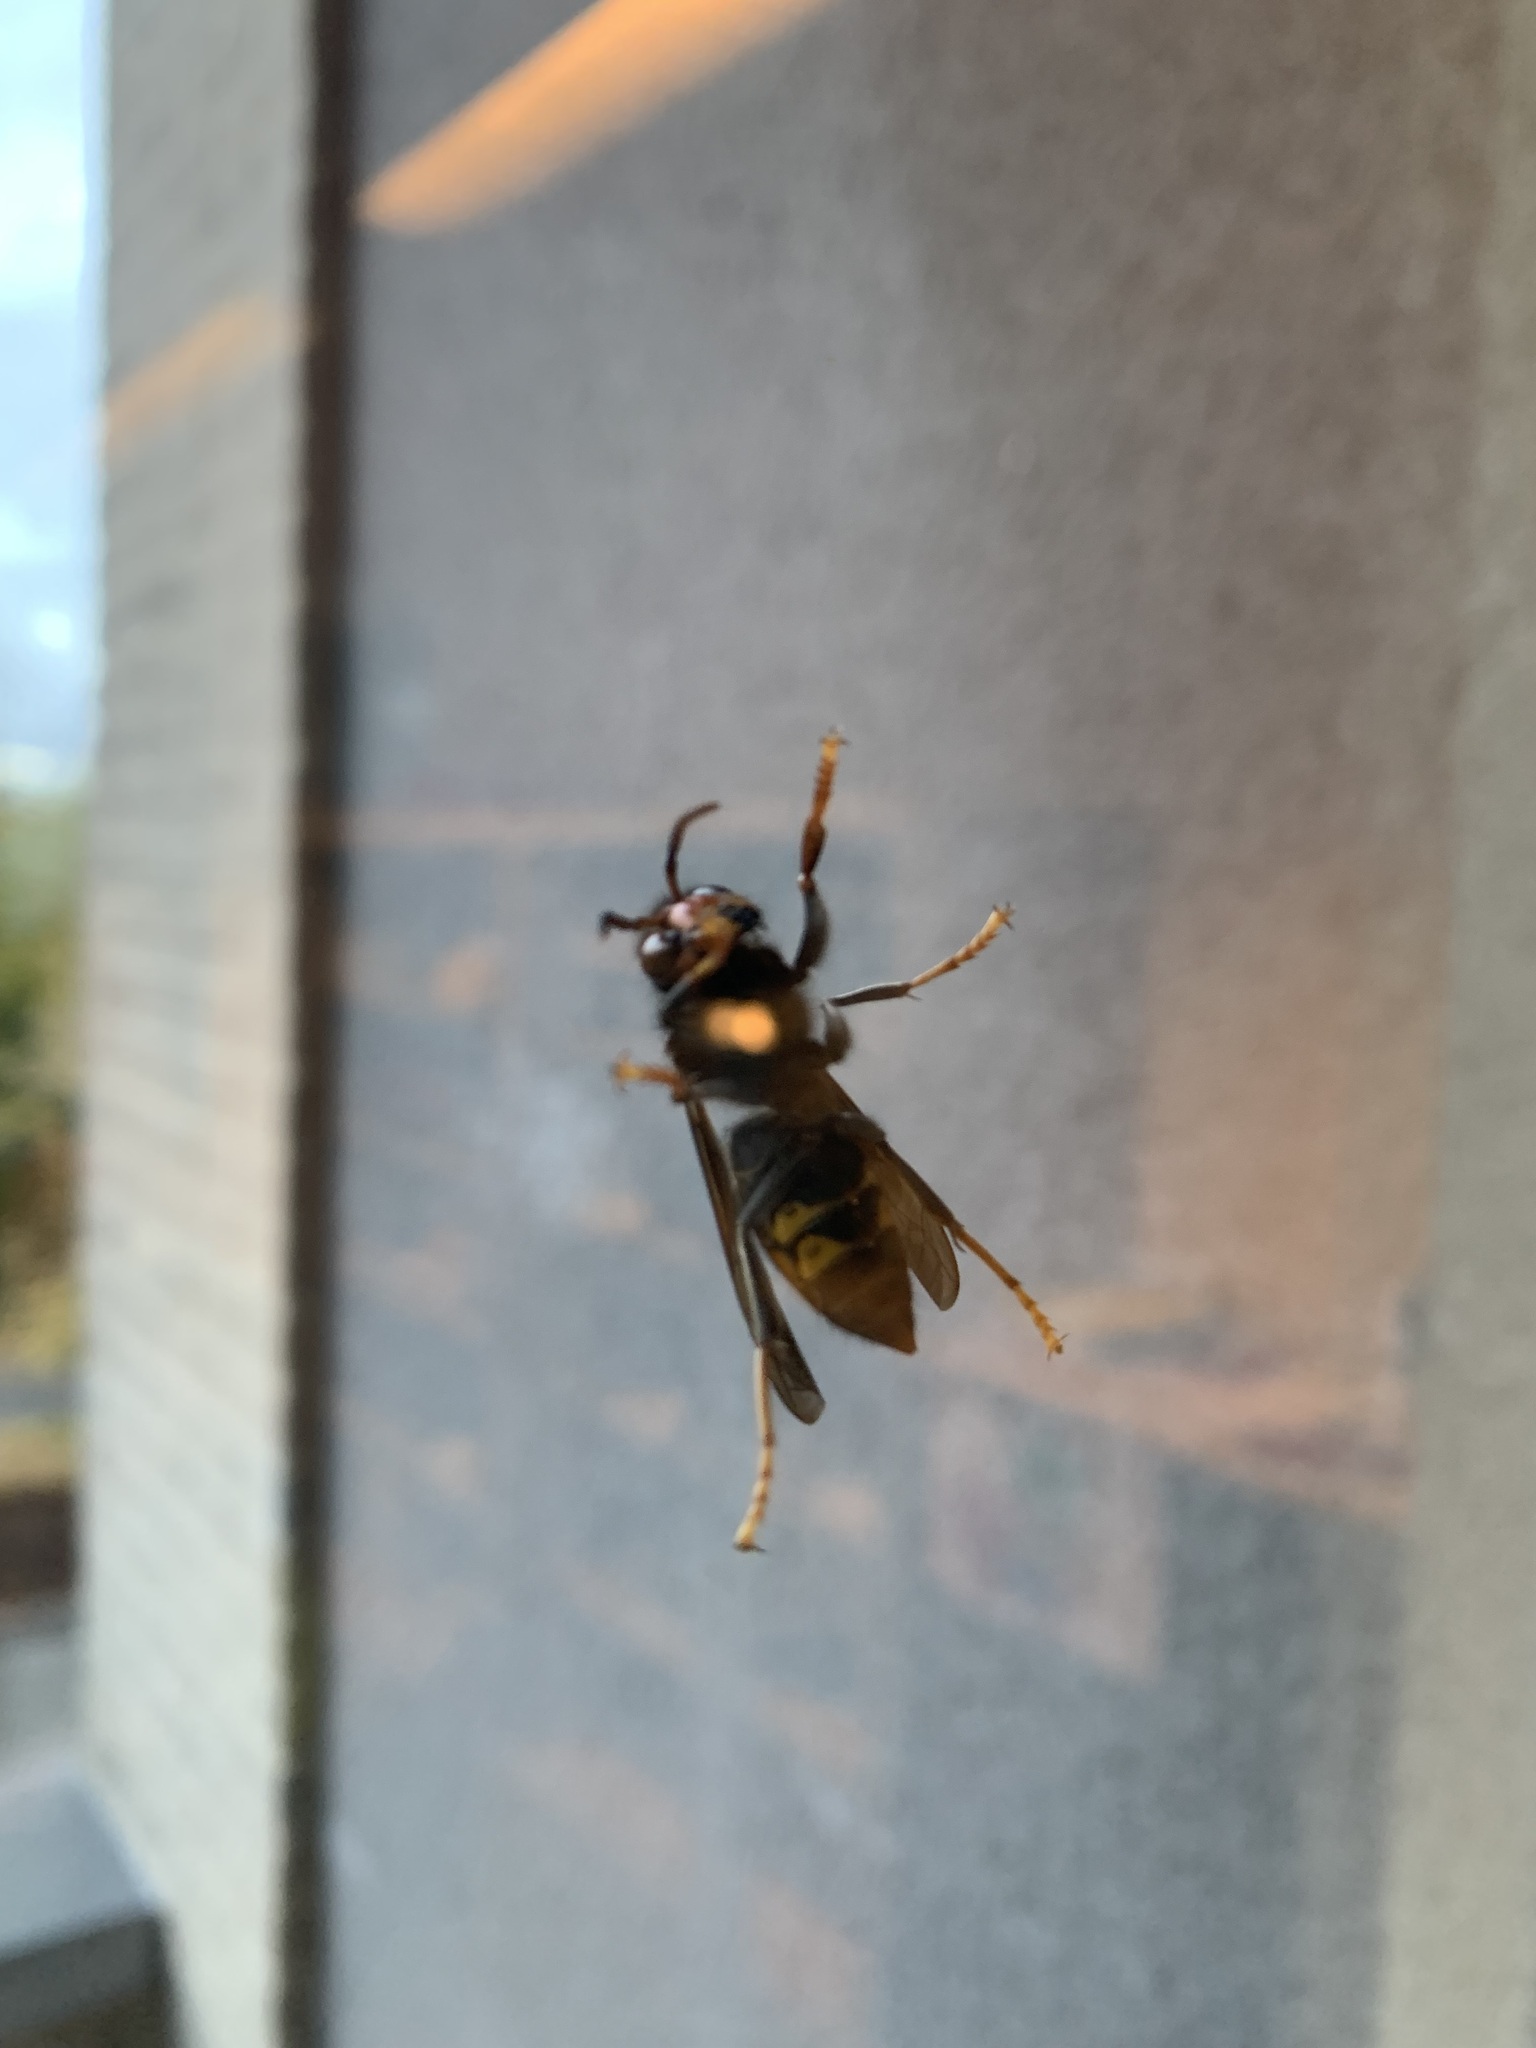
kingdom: Animalia
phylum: Arthropoda
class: Insecta
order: Hymenoptera
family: Vespidae
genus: Vespa
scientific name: Vespa velutina
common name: Asian hornet
